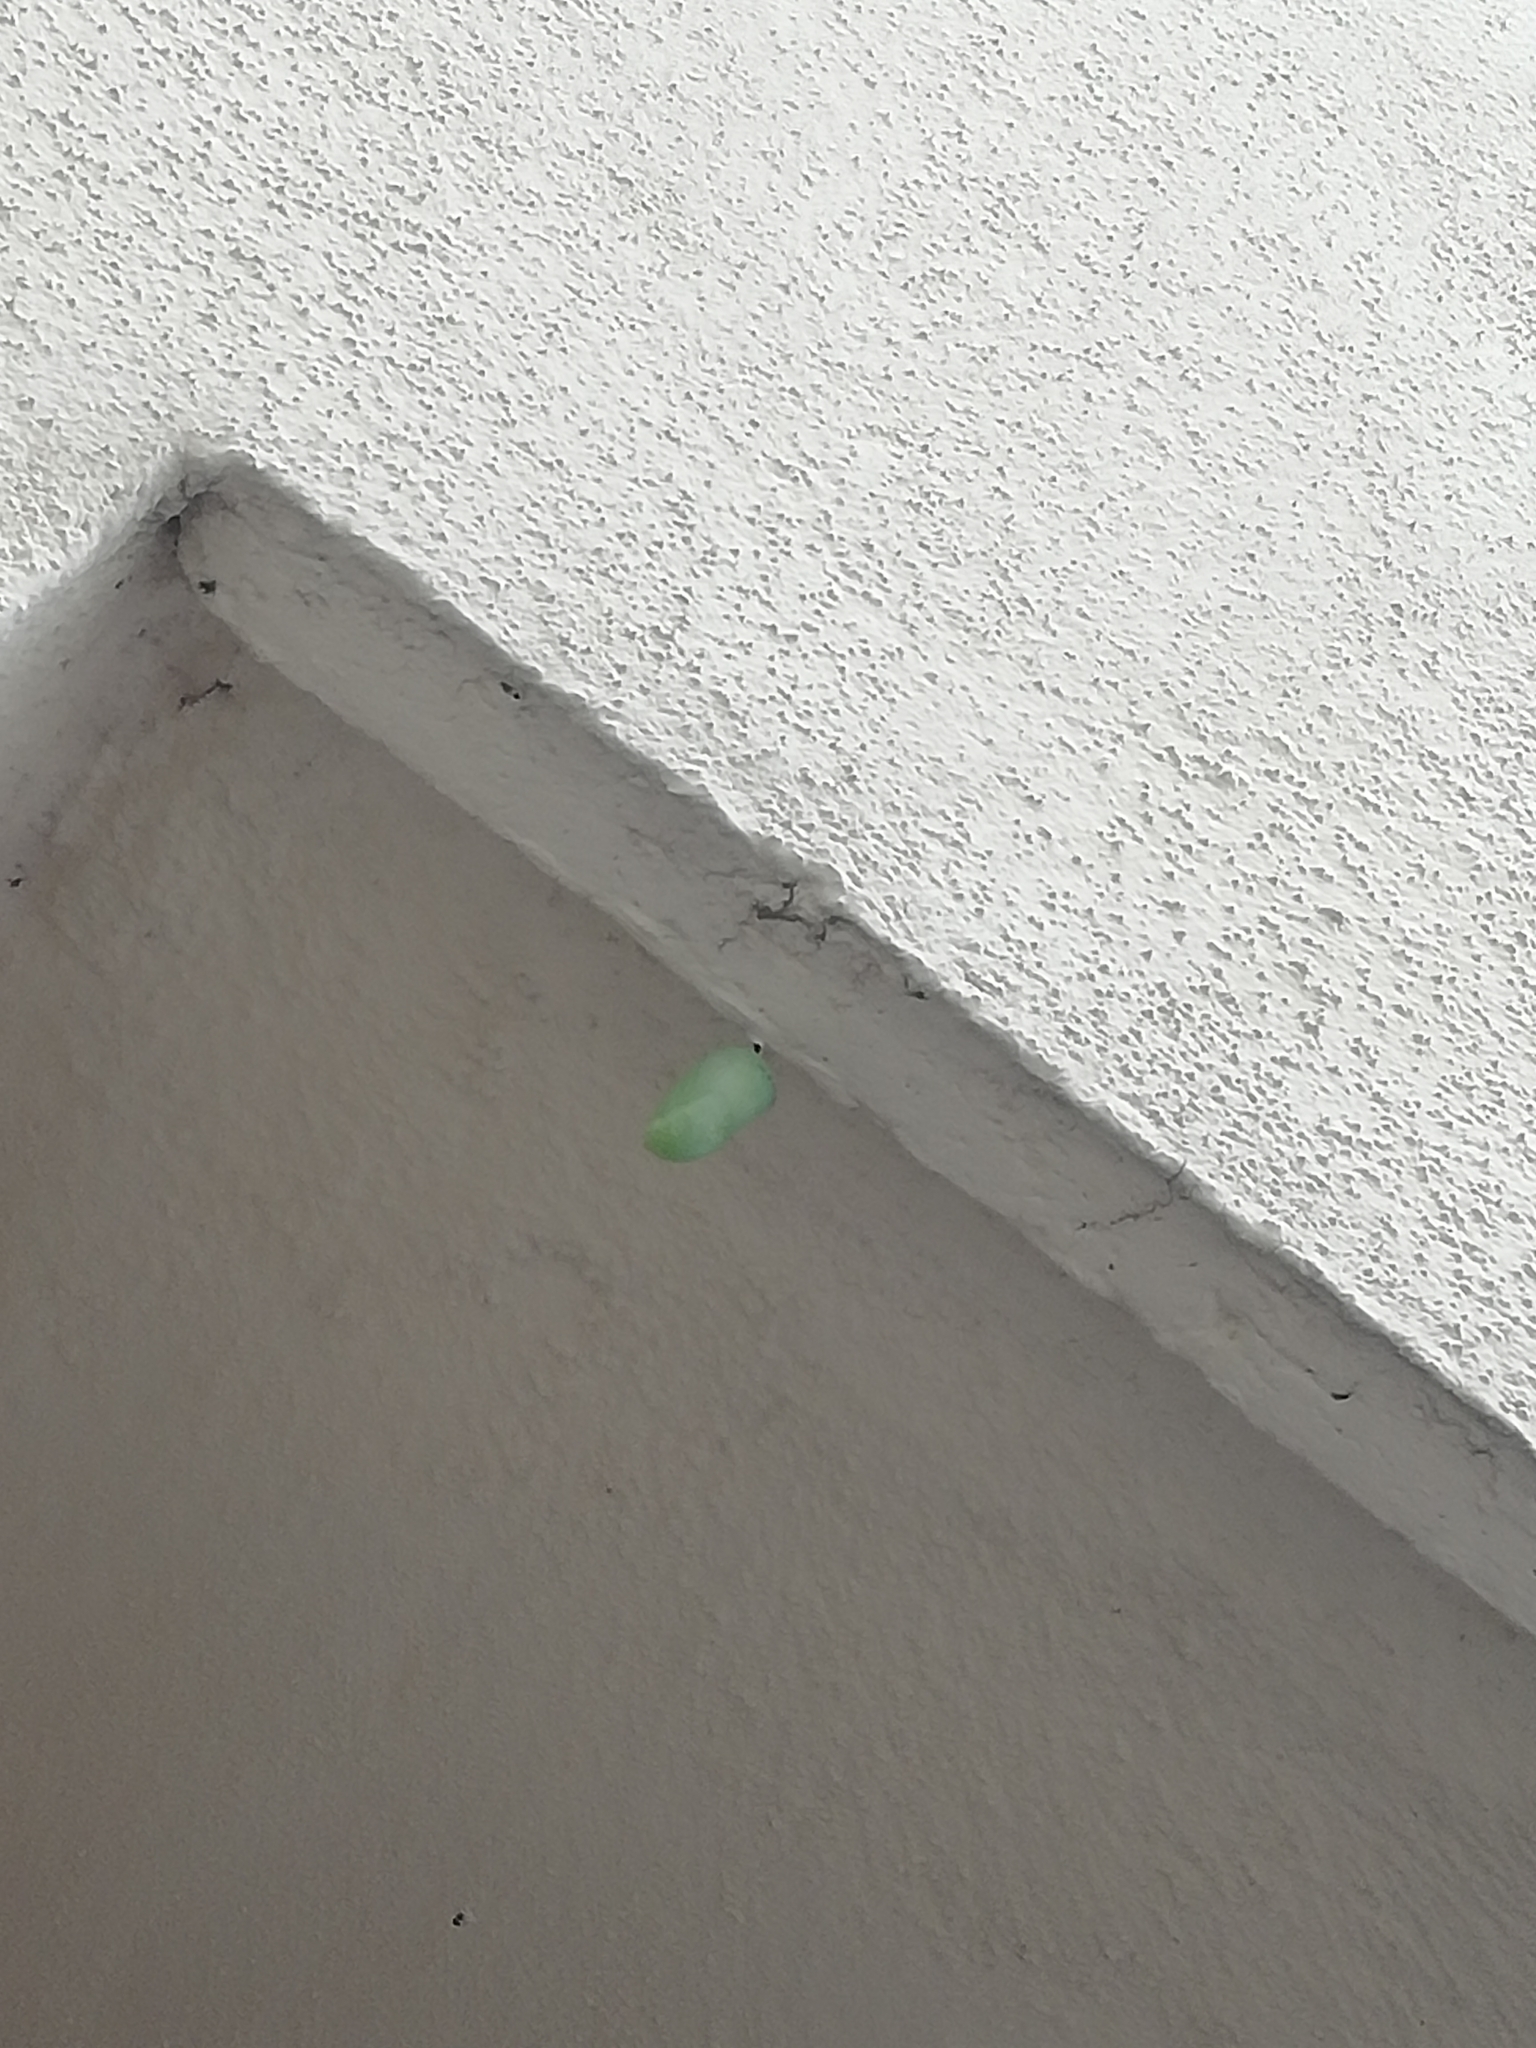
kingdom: Animalia
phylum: Arthropoda
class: Insecta
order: Lepidoptera
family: Nymphalidae
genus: Danaus
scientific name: Danaus plexippus
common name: Monarch
